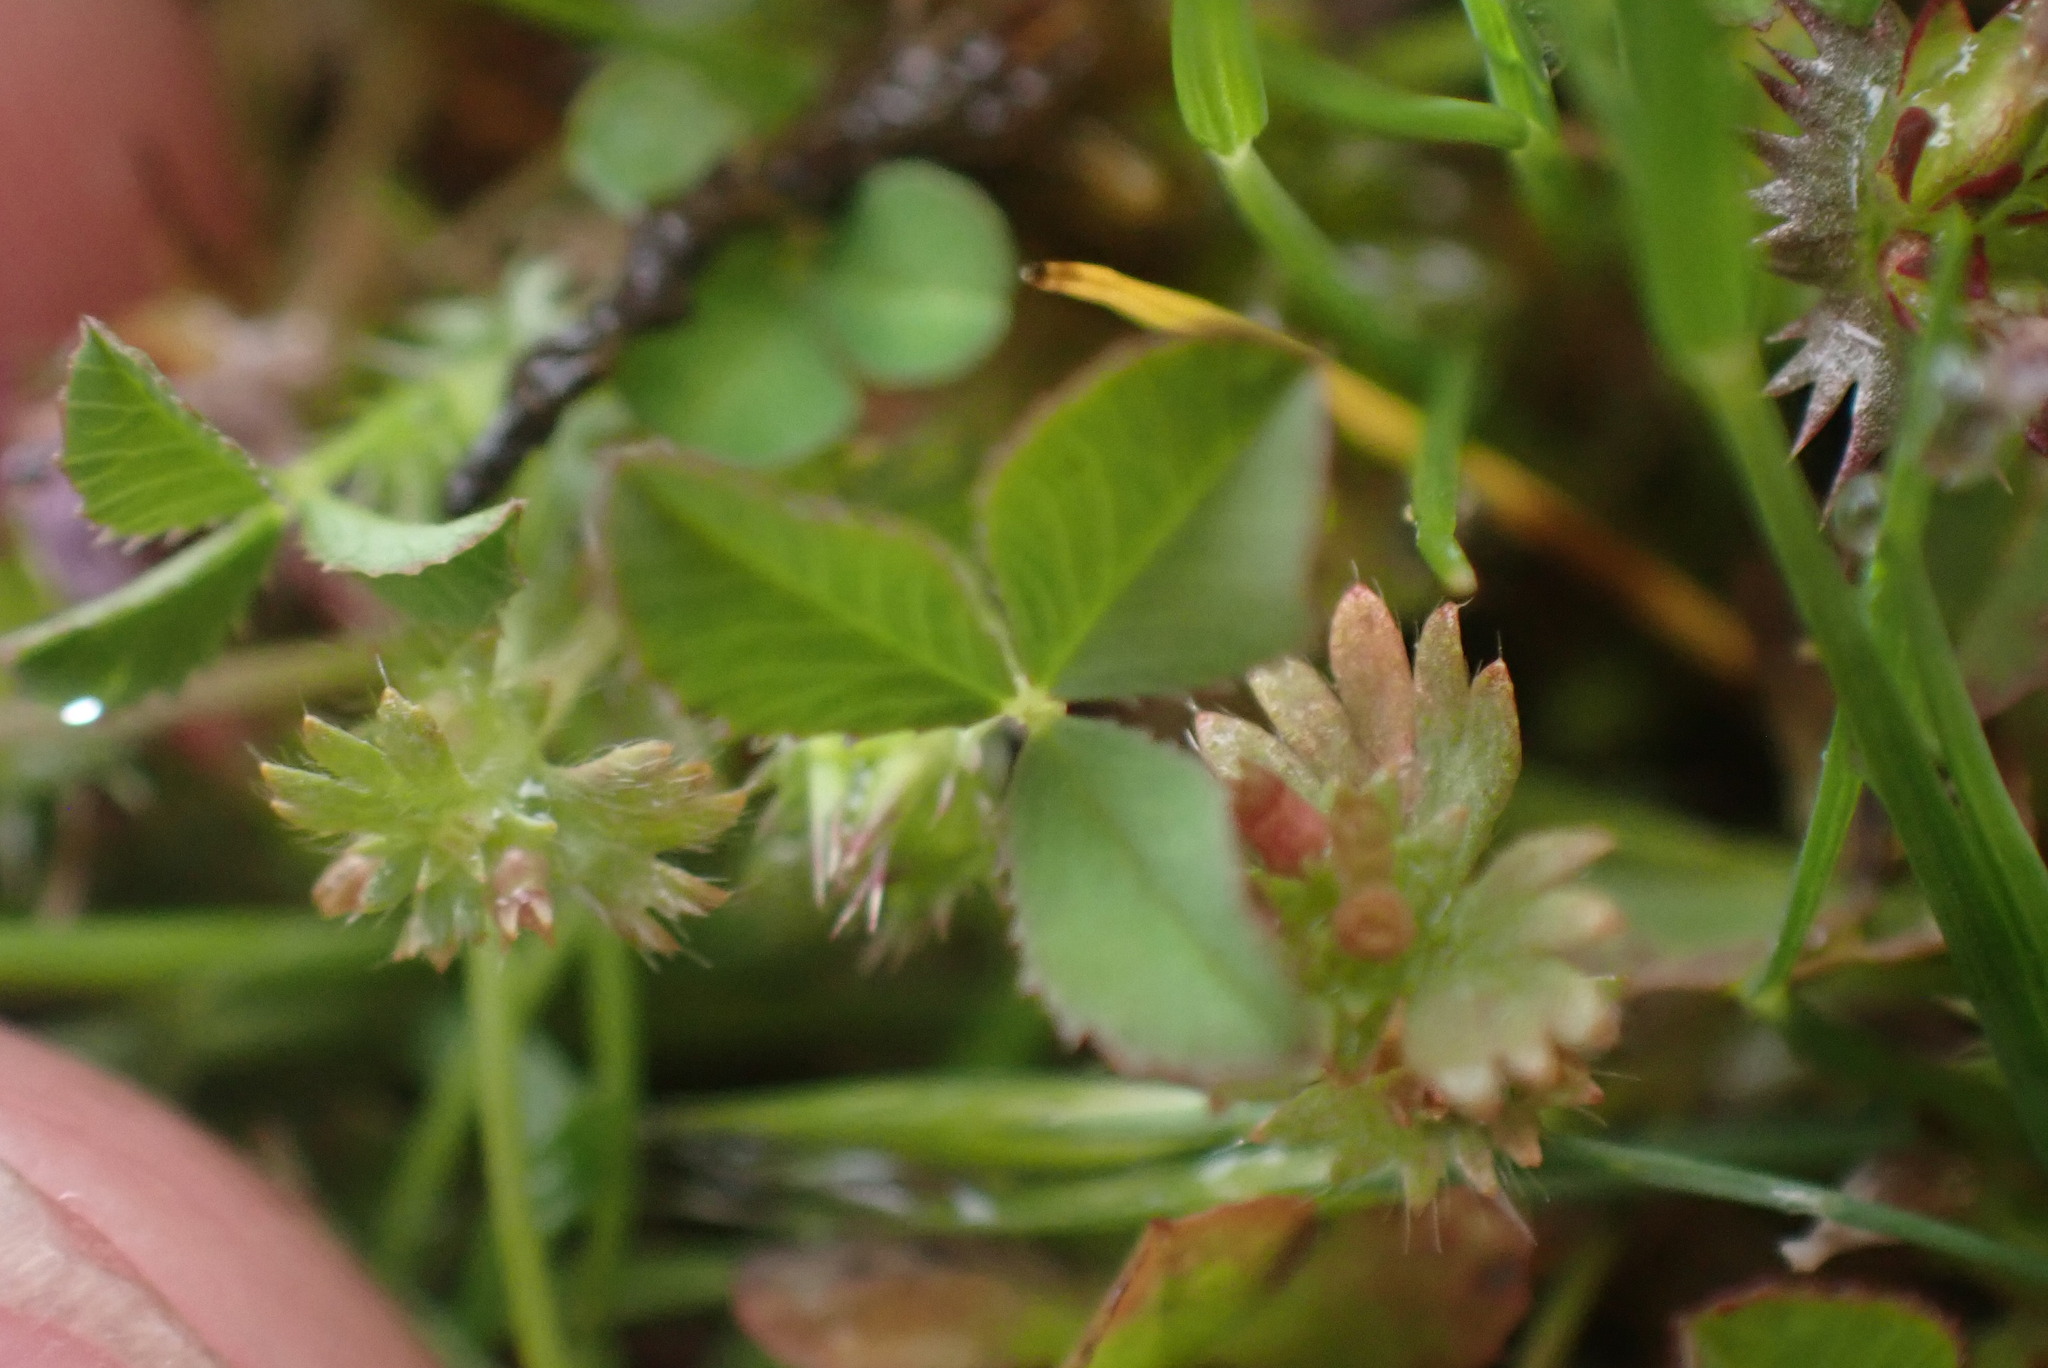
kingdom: Plantae
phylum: Tracheophyta
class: Magnoliopsida
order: Fabales
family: Fabaceae
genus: Trifolium
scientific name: Trifolium variegatum
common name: Whitetip clover
